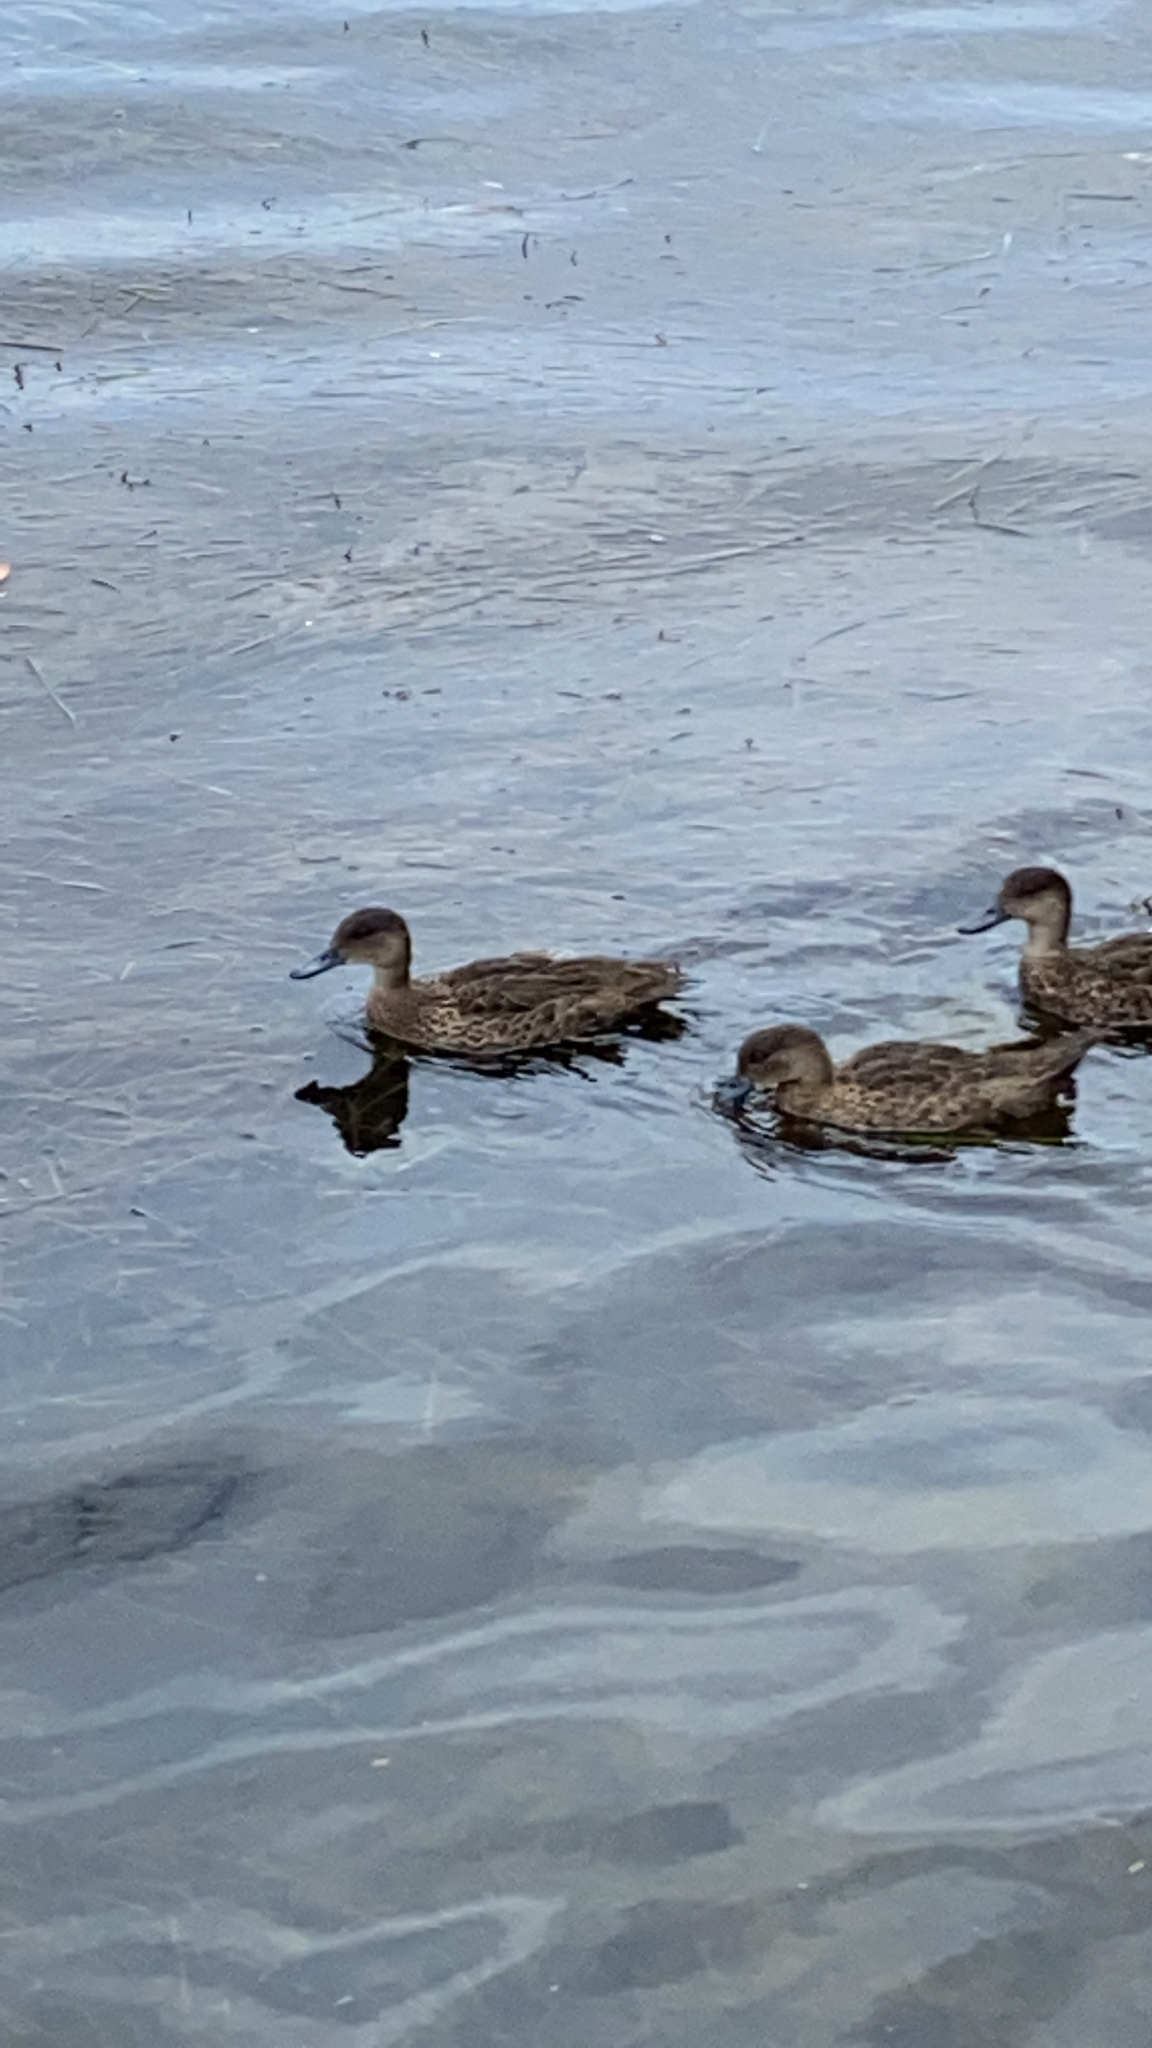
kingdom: Animalia
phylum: Chordata
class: Aves
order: Anseriformes
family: Anatidae
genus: Anas
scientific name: Anas gracilis
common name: Grey teal
